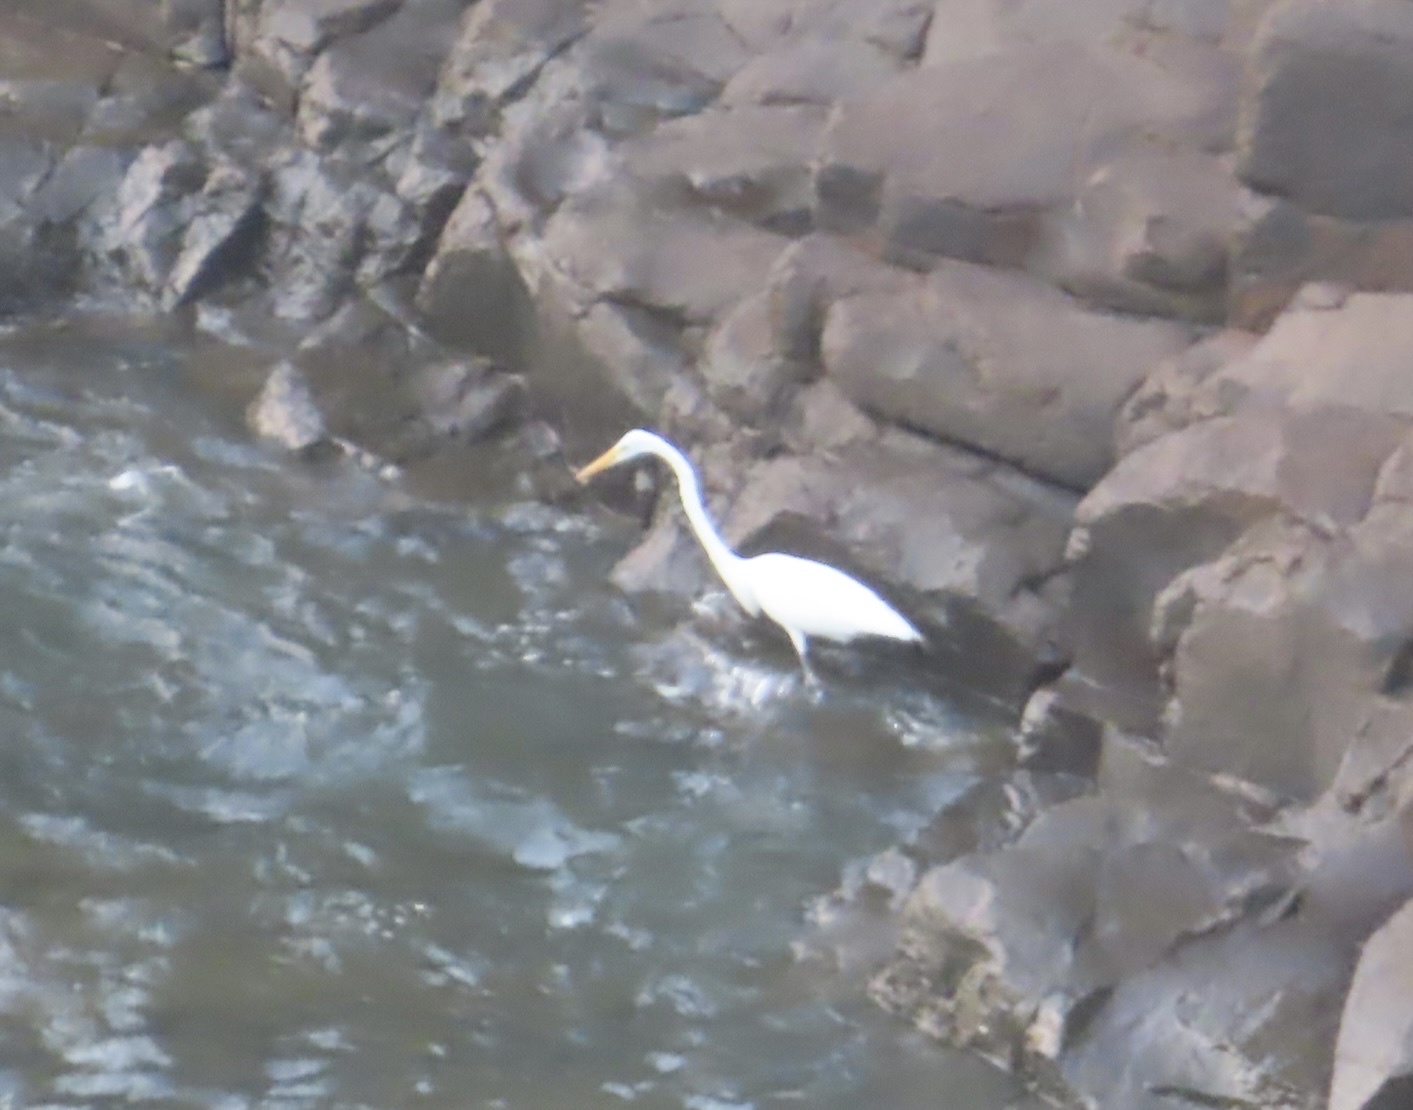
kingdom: Animalia
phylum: Chordata
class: Aves
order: Pelecaniformes
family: Ardeidae
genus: Ardea
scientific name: Ardea alba
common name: Great egret
